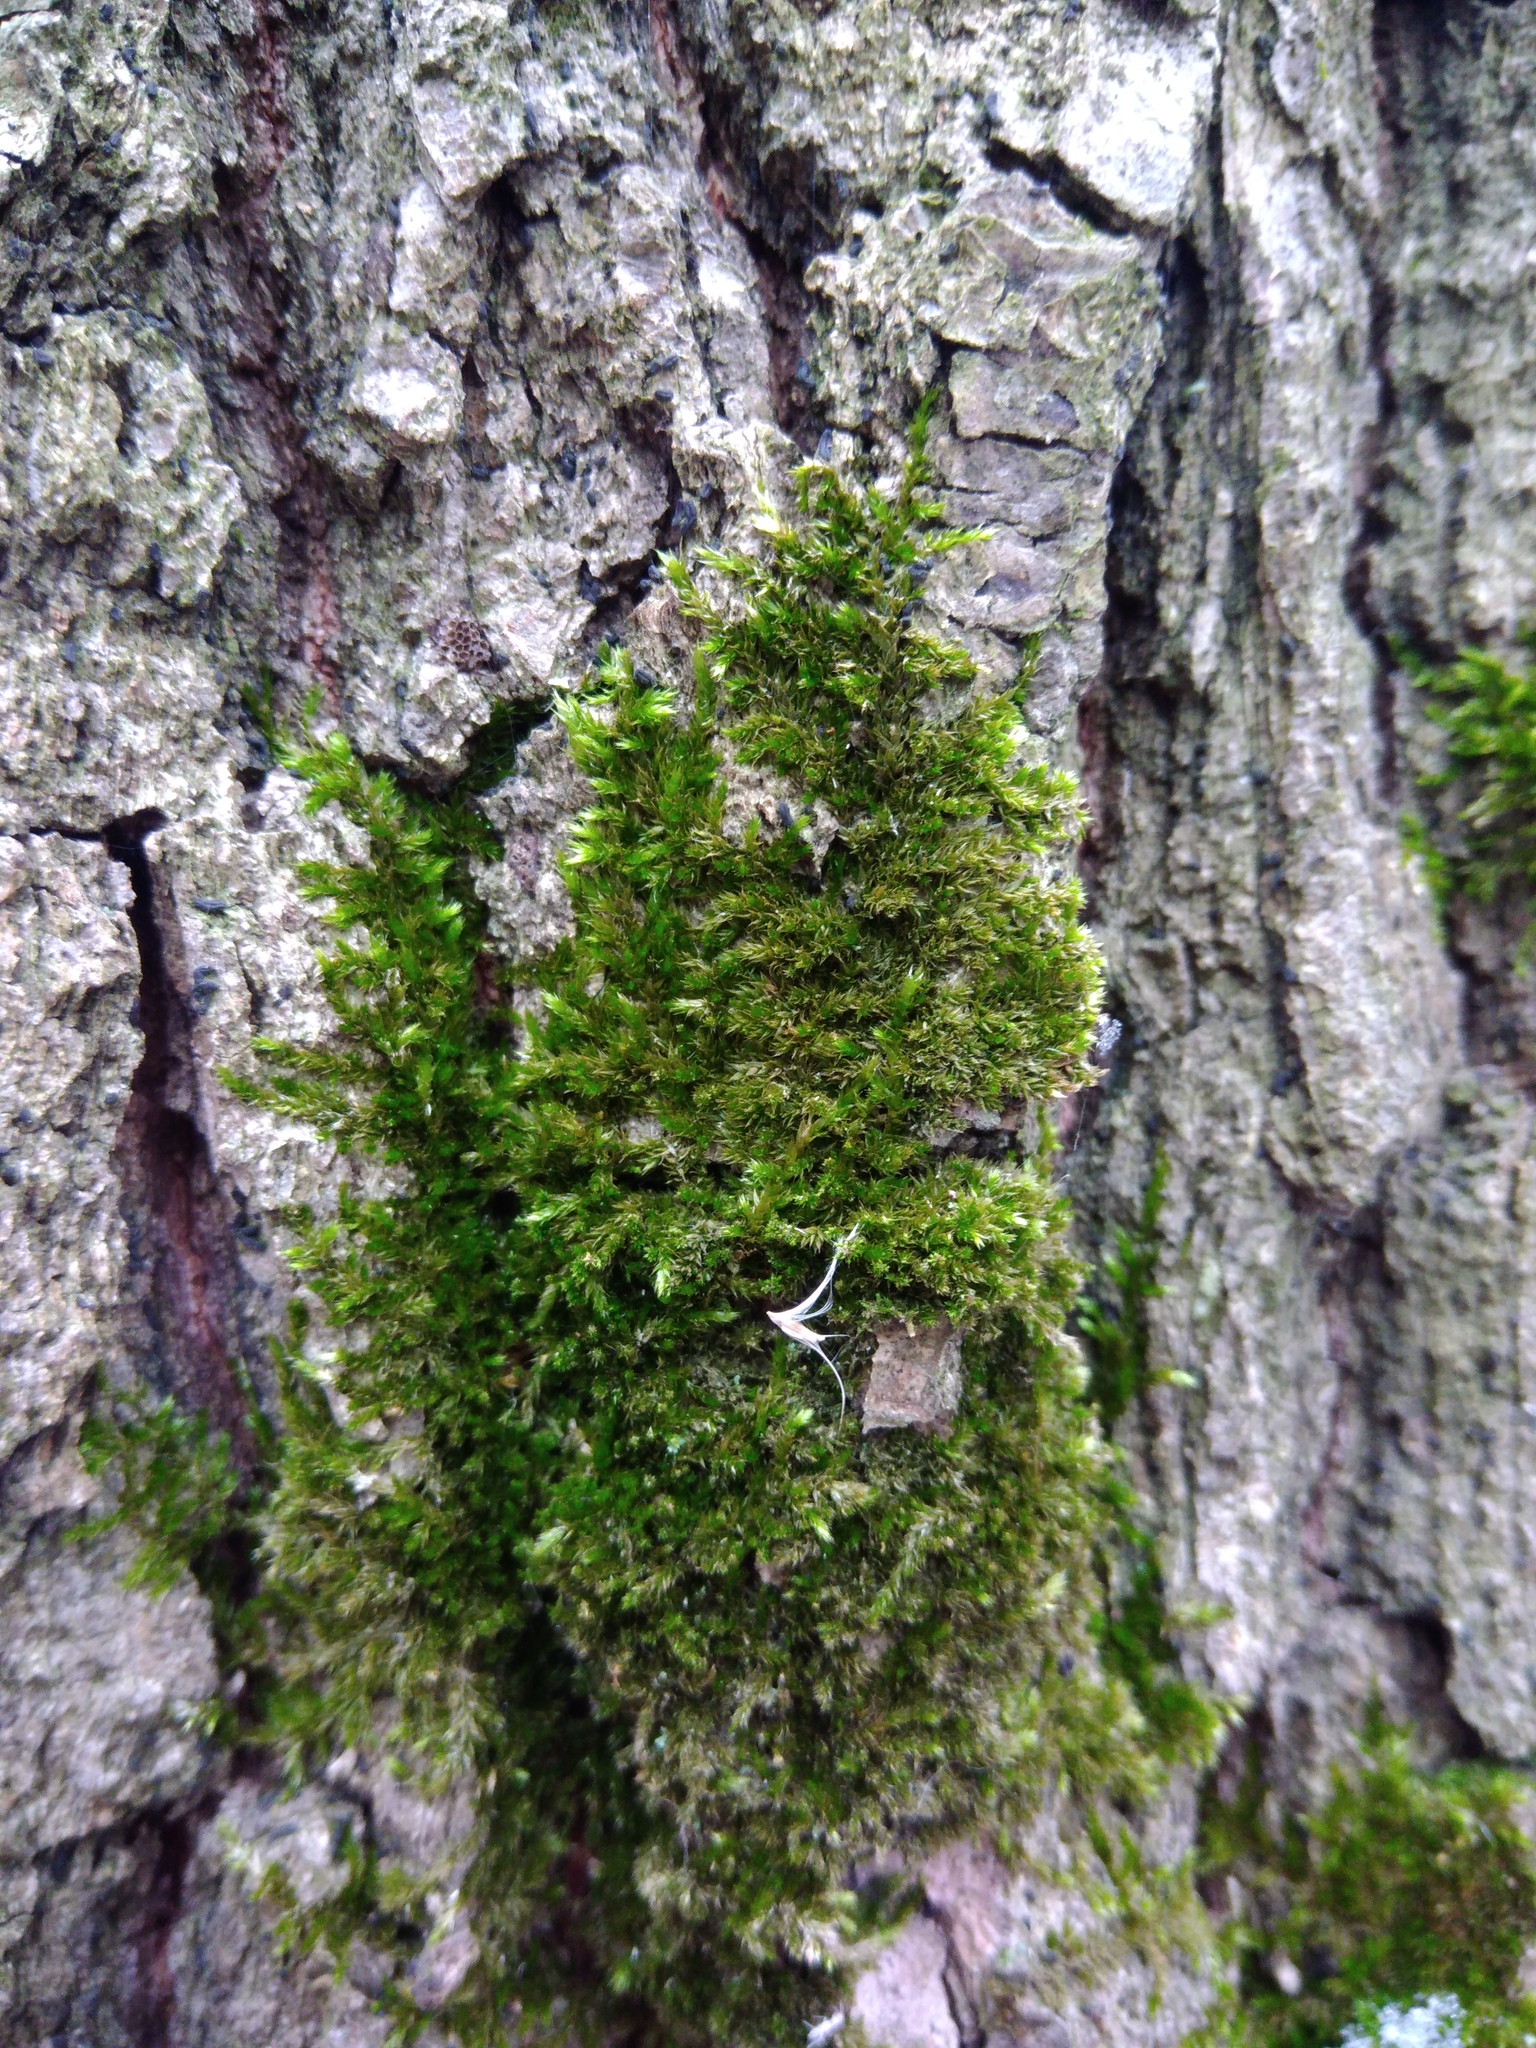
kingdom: Plantae
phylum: Bryophyta
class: Bryopsida
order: Hypnales
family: Pylaisiadelphaceae
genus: Platygyrium
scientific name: Platygyrium repens
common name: Flat-brocade moss
